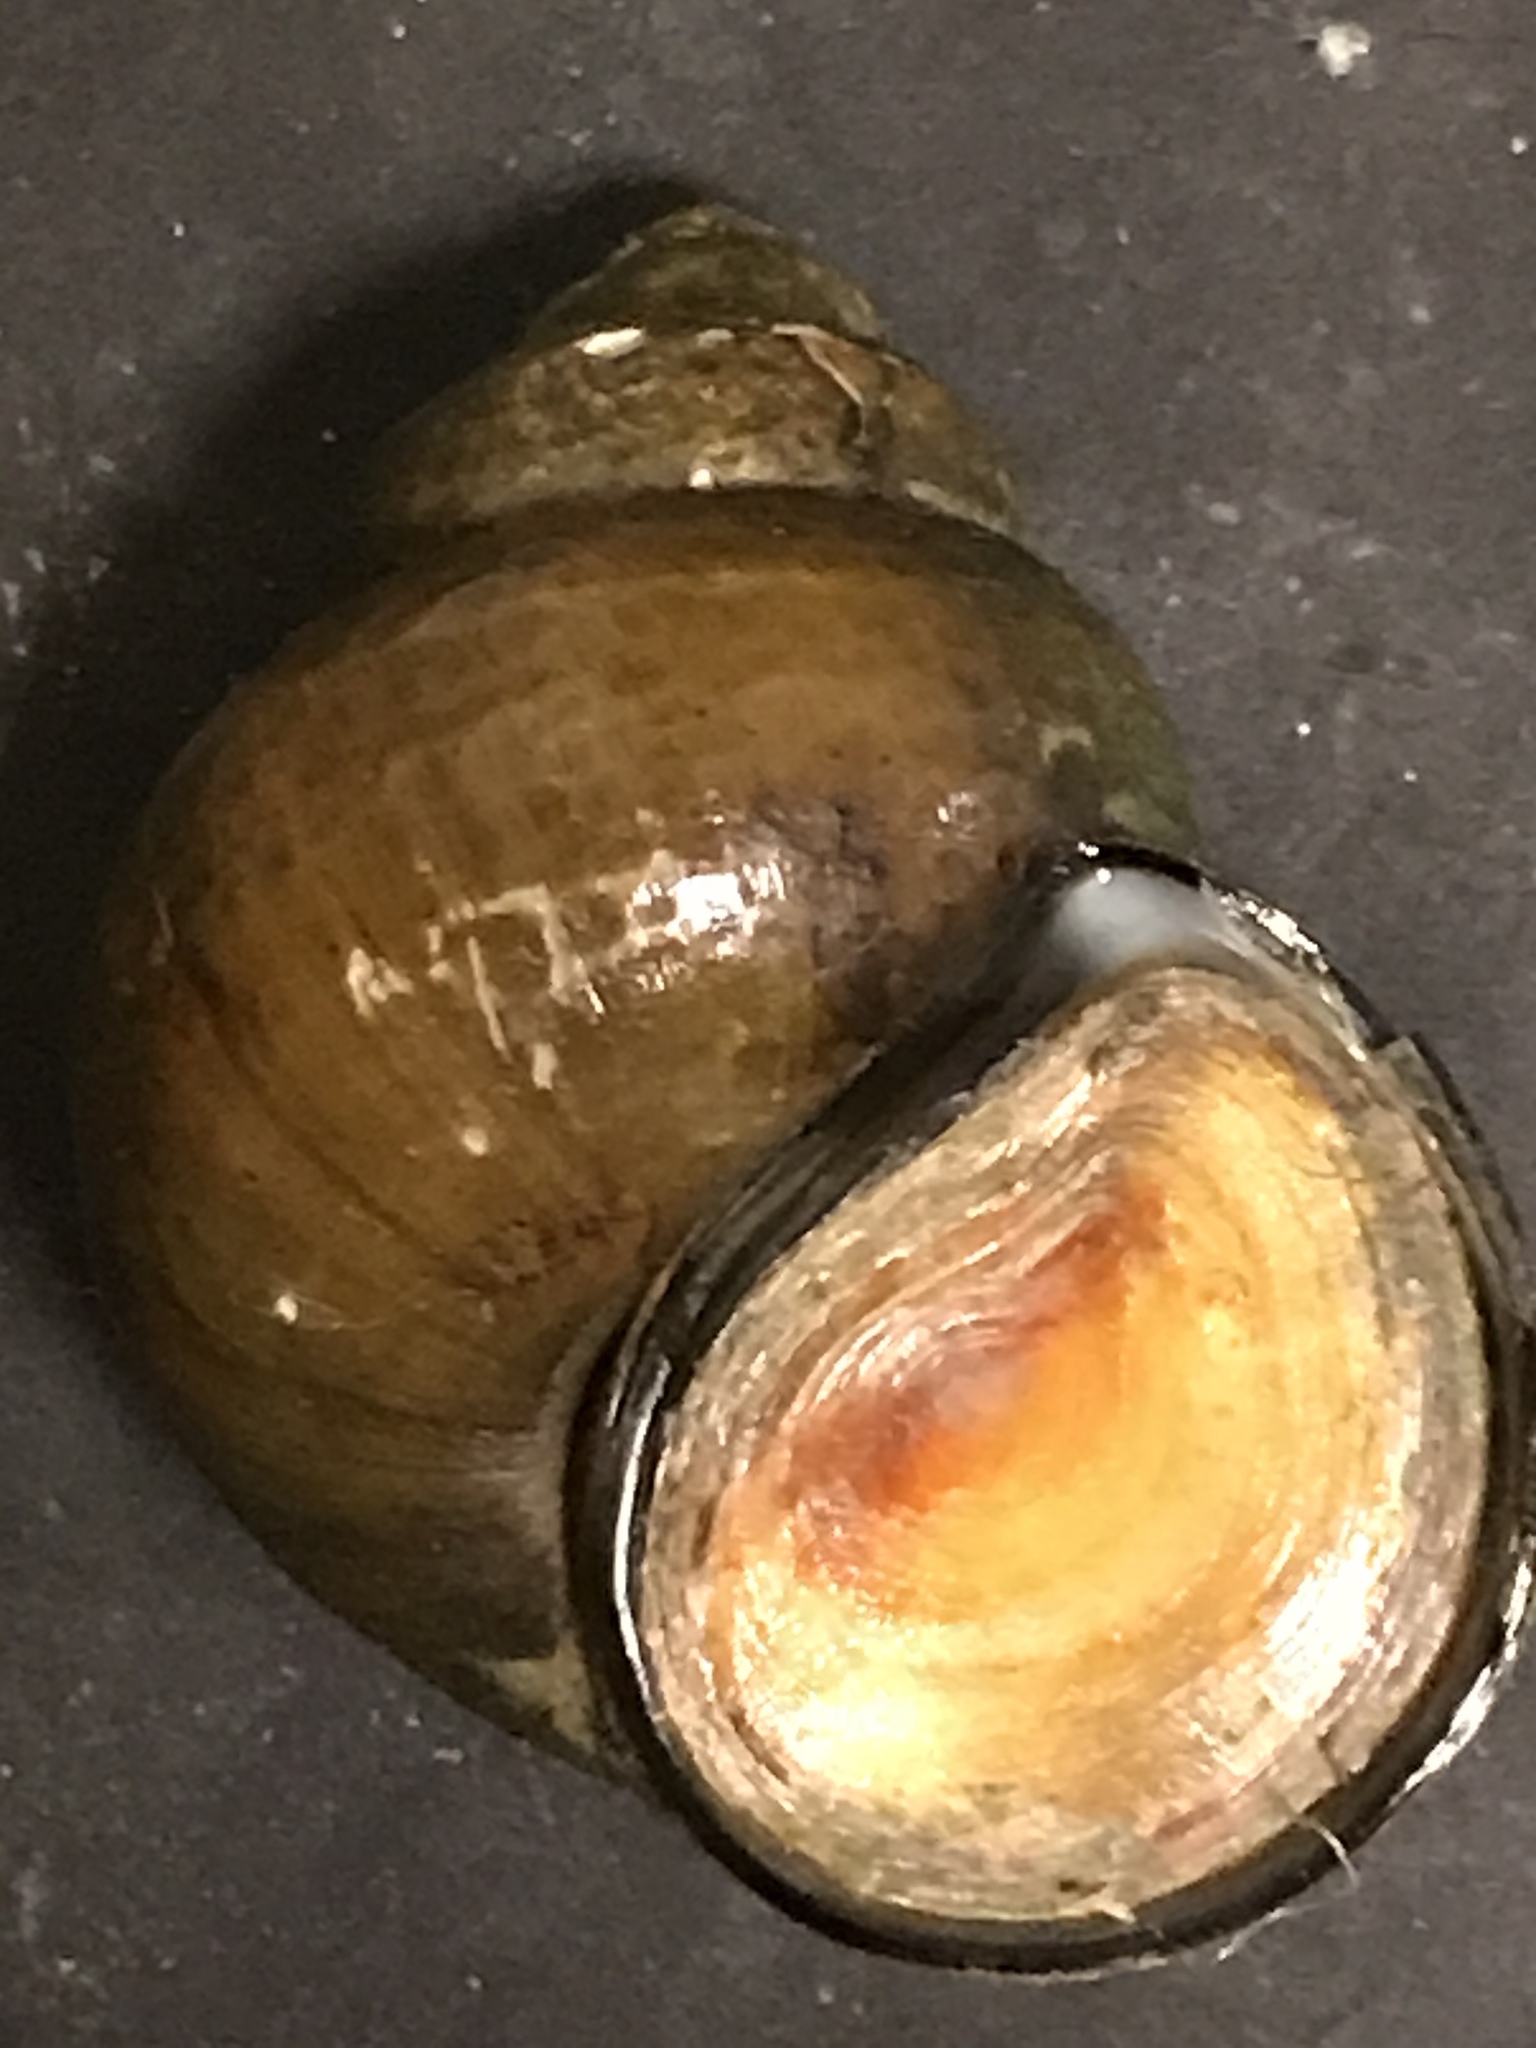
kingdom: Animalia
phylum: Mollusca
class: Gastropoda
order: Architaenioglossa
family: Viviparidae
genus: Cipangopaludina
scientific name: Cipangopaludina chinensis
